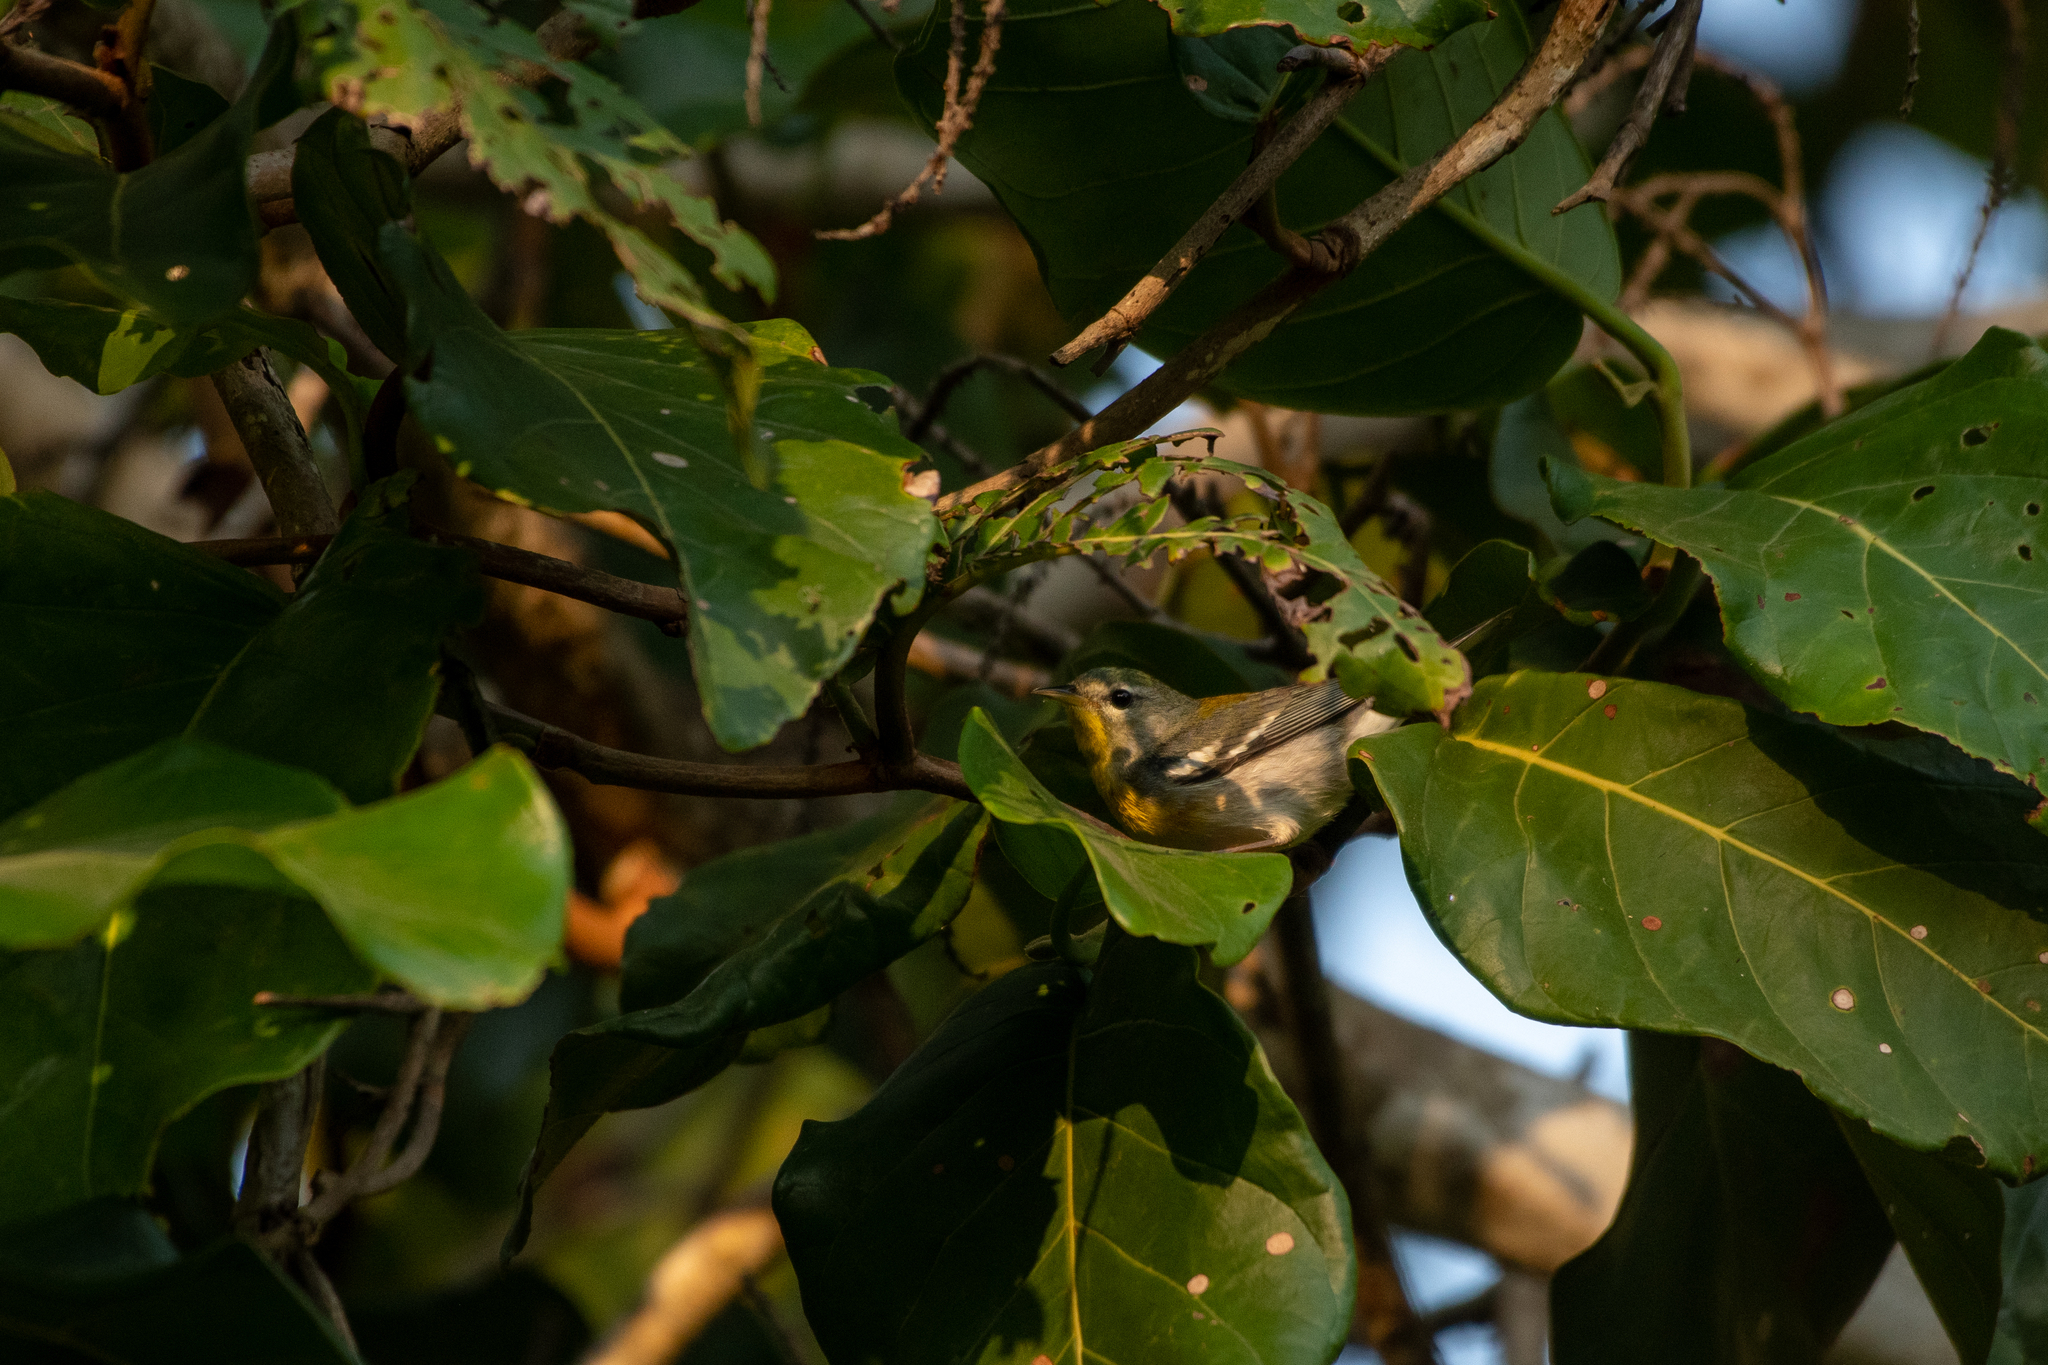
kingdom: Animalia
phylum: Chordata
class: Aves
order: Passeriformes
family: Parulidae
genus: Setophaga
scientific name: Setophaga americana
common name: Northern parula
